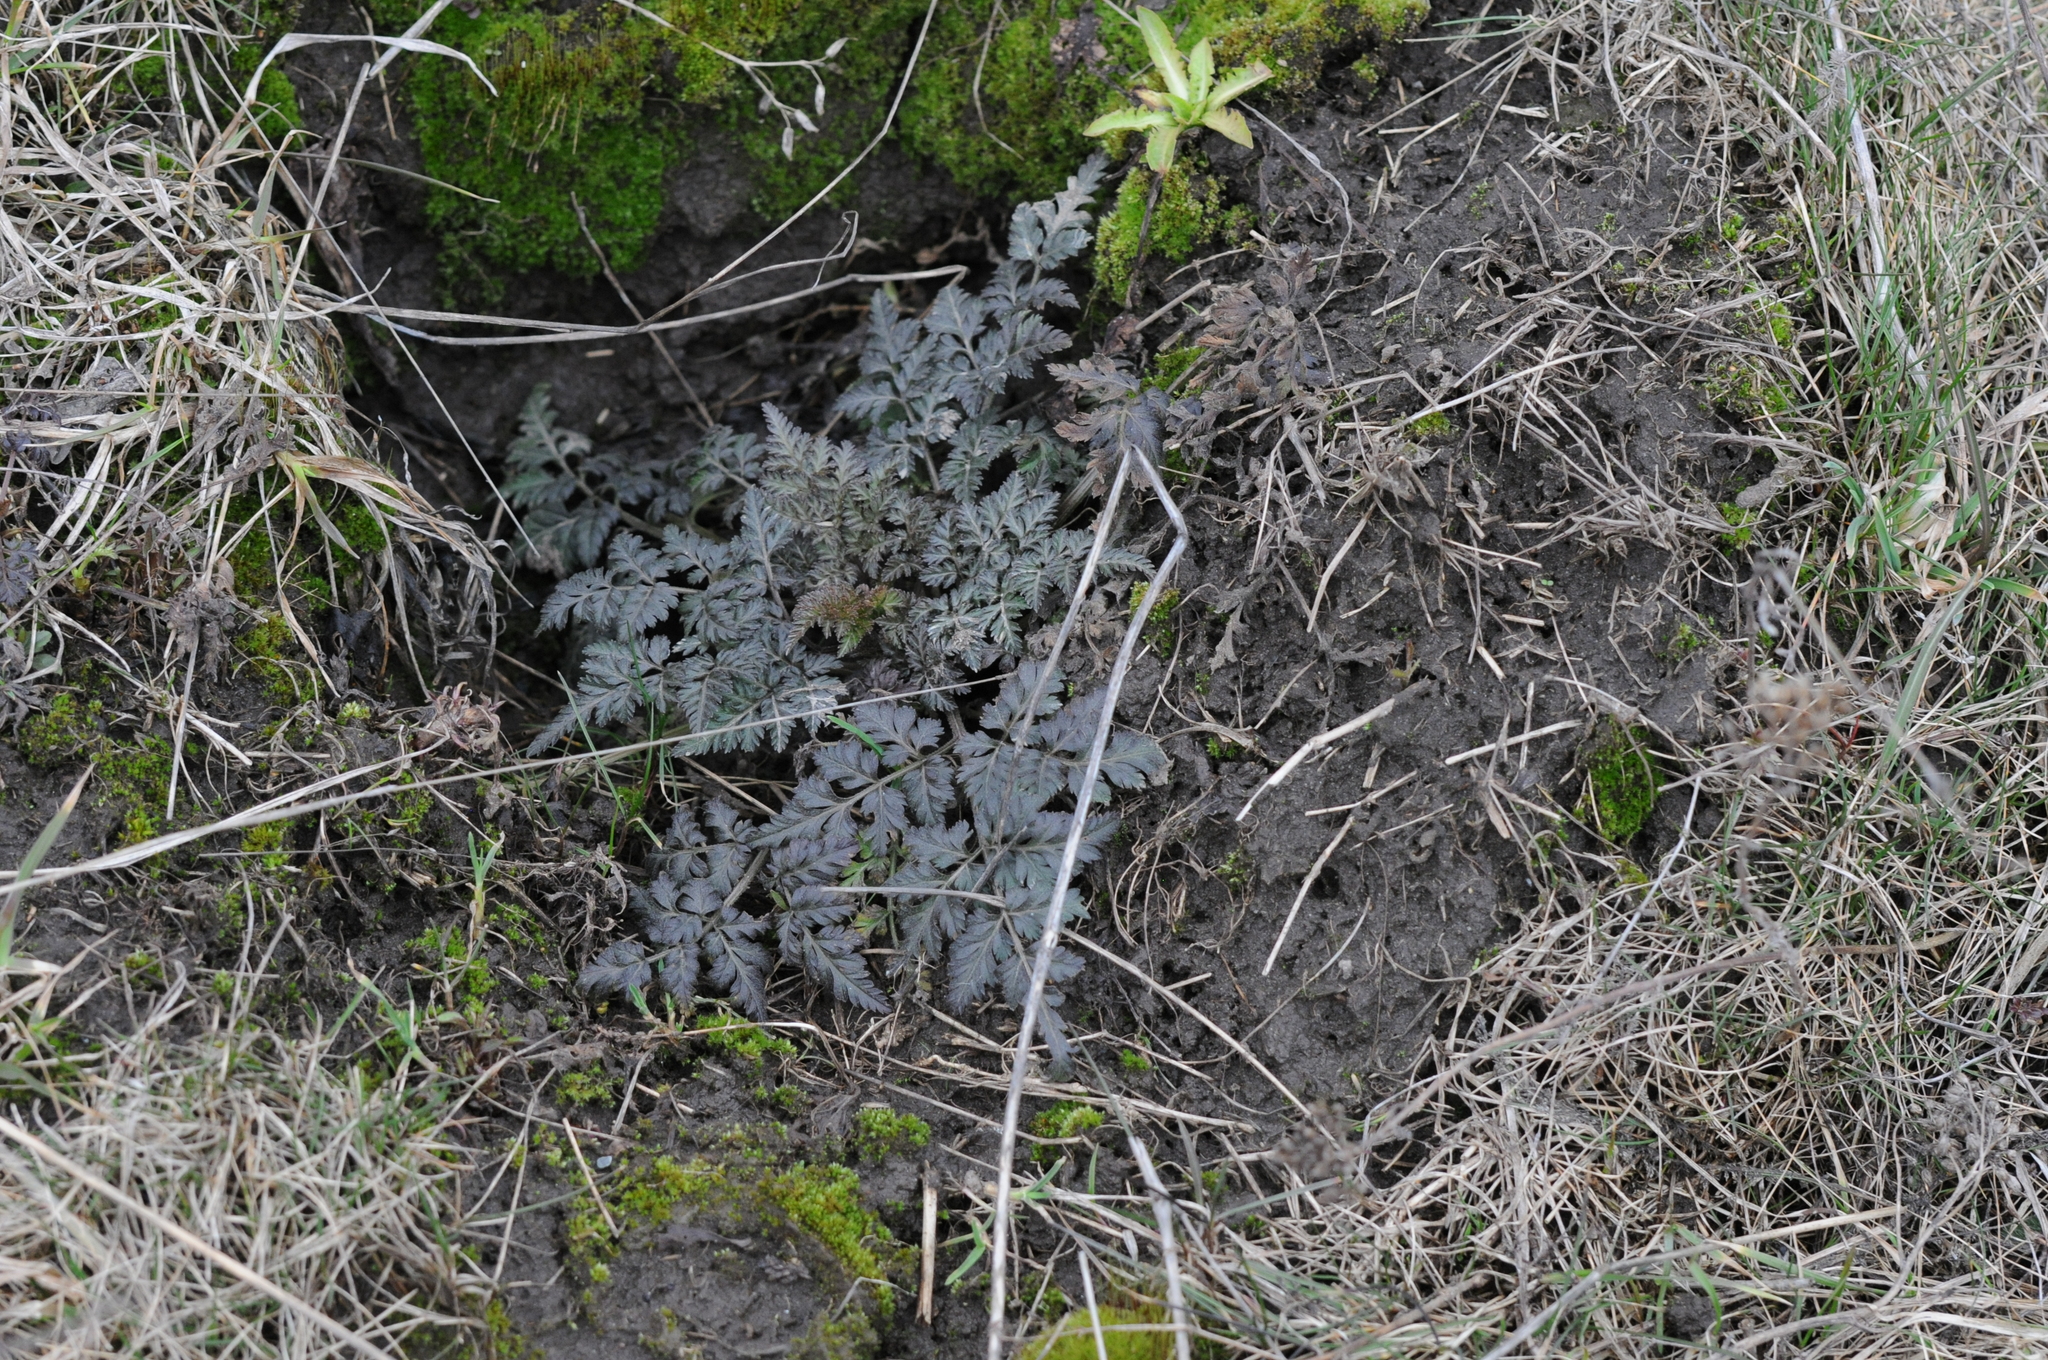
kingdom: Plantae
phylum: Tracheophyta
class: Magnoliopsida
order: Apiales
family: Apiaceae
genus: Anthriscus
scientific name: Anthriscus sylvestris
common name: Cow parsley
